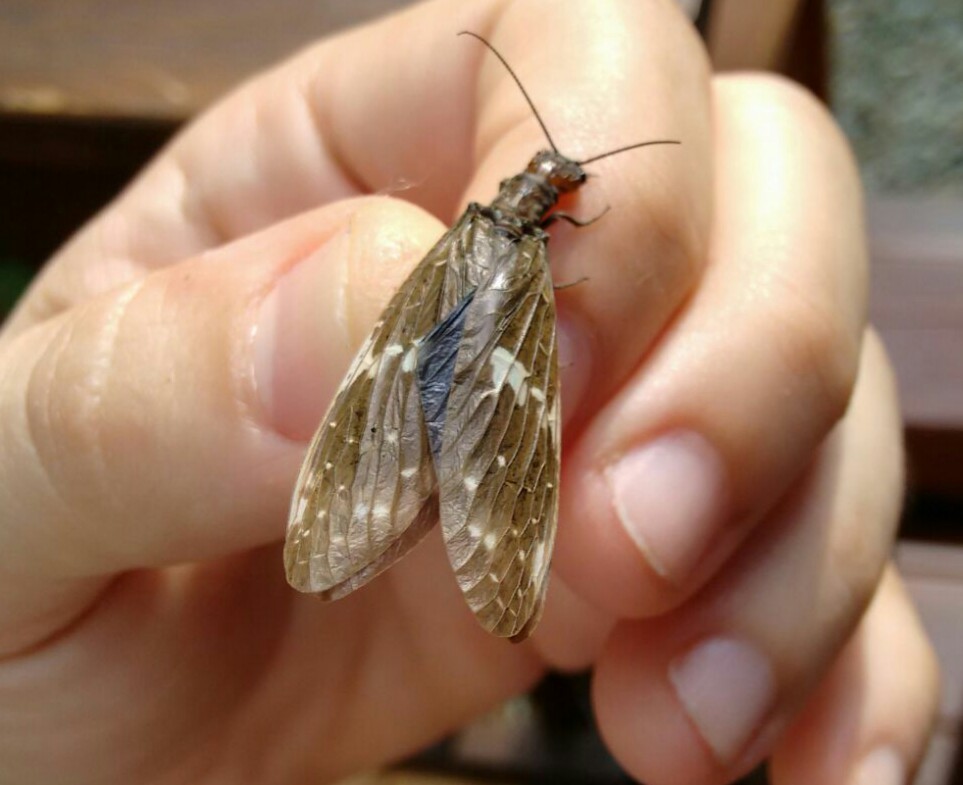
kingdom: Animalia
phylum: Arthropoda
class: Insecta
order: Megaloptera
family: Corydalidae
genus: Nigronia
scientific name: Nigronia serricornis
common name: Serrate dark fishfly
